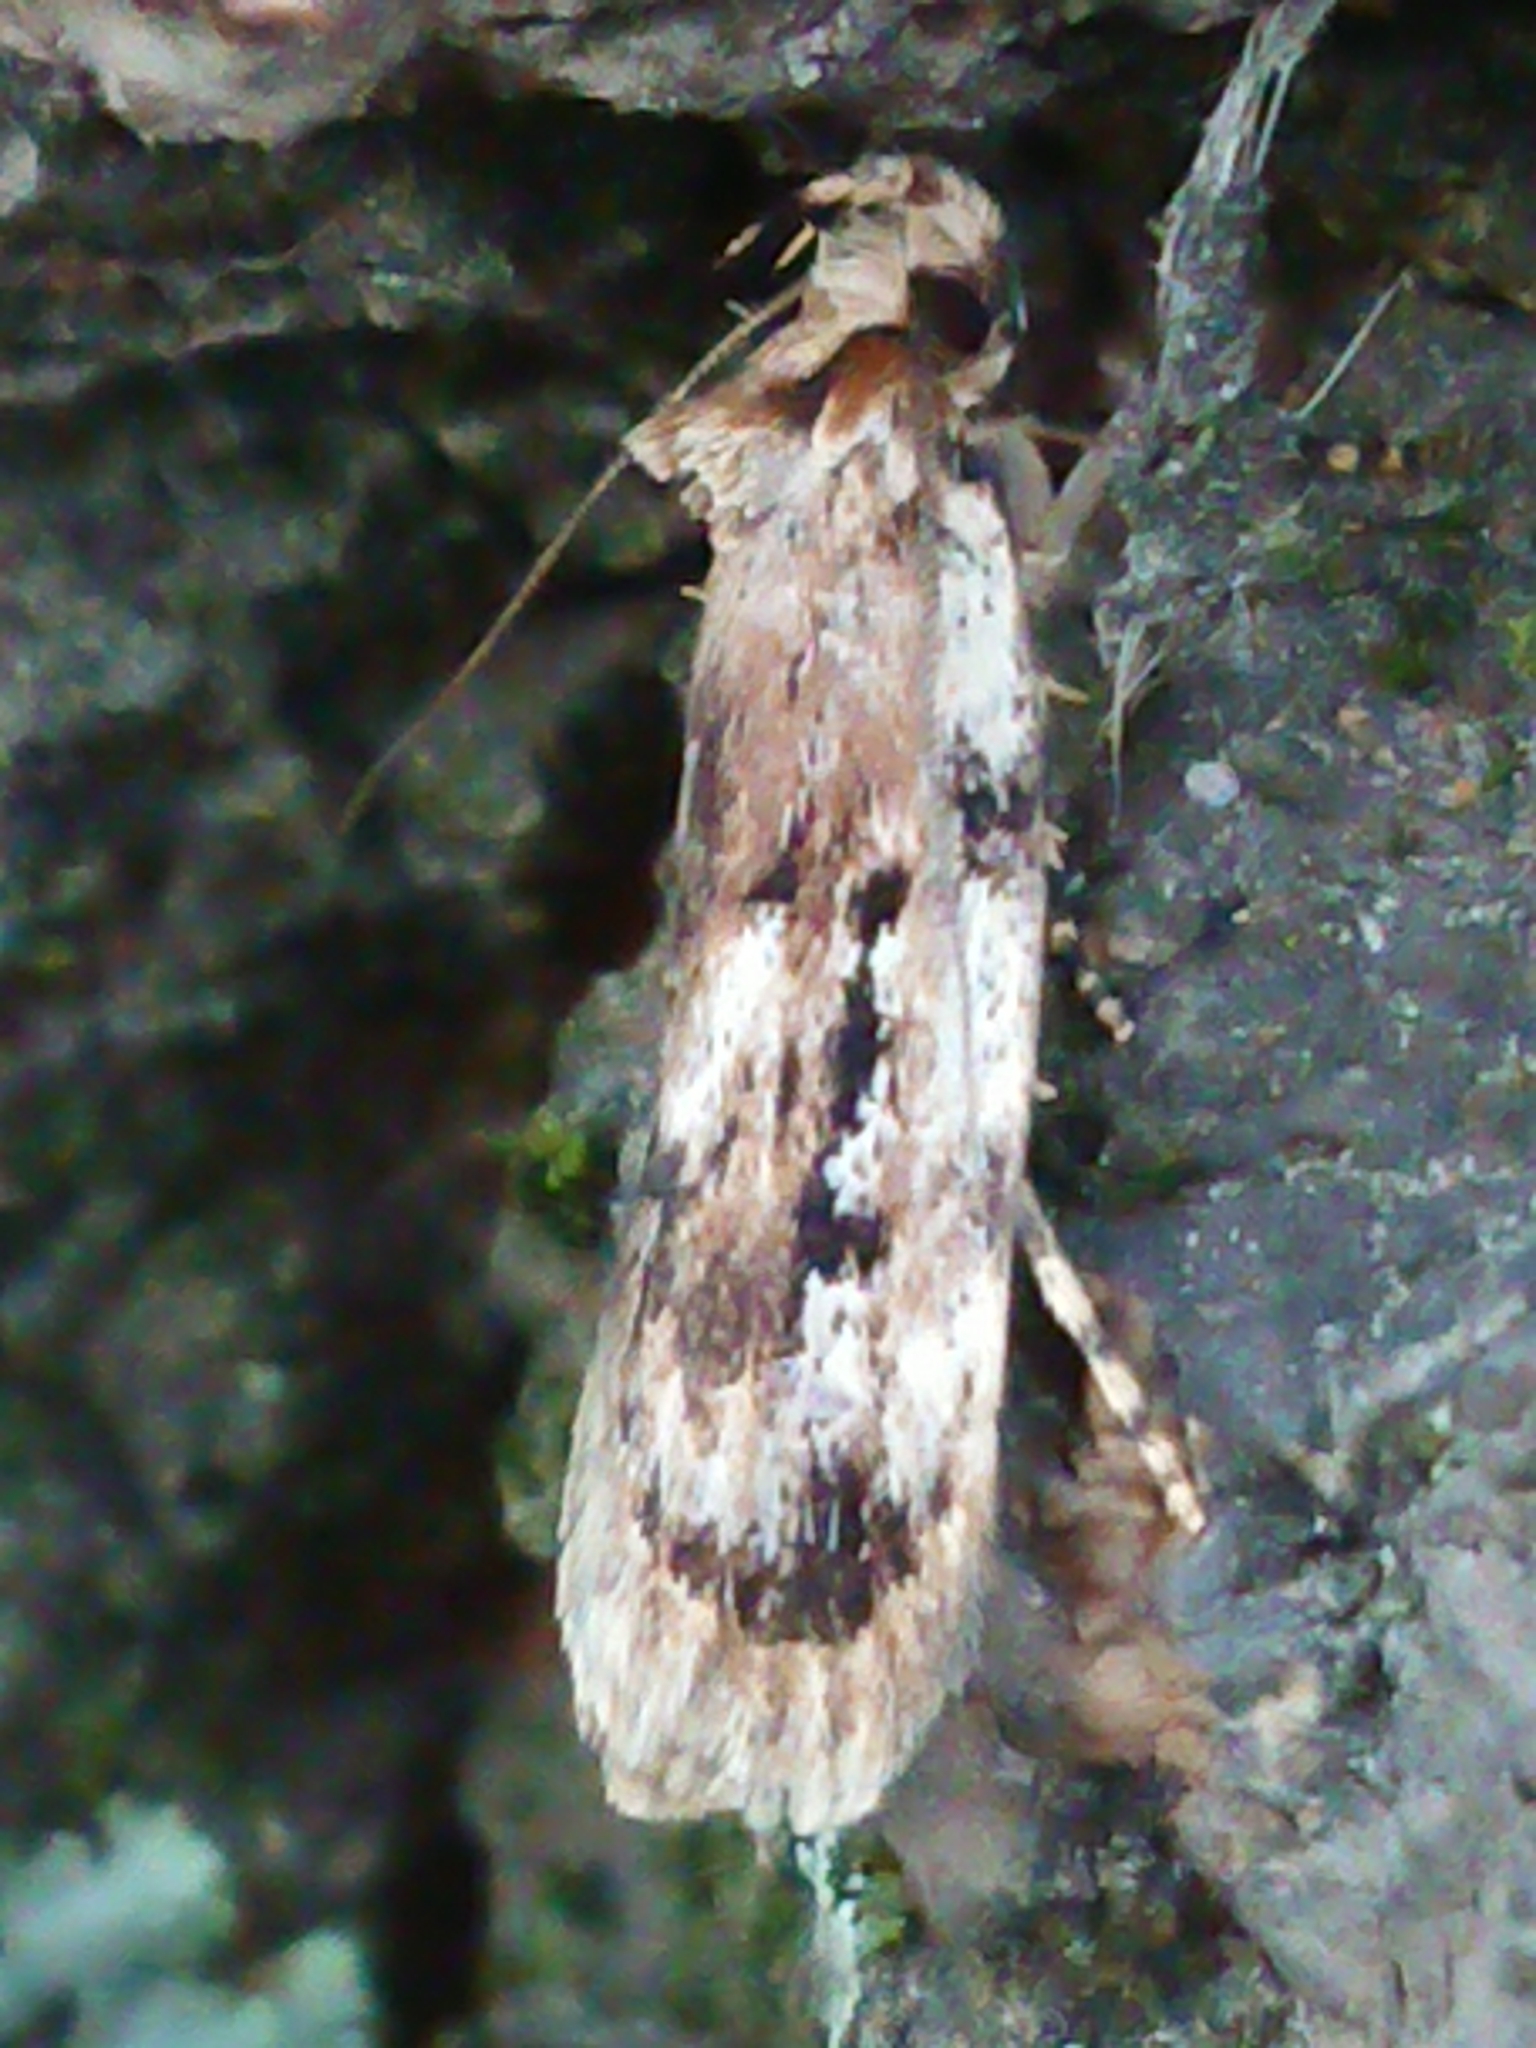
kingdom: Animalia
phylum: Arthropoda
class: Insecta
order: Lepidoptera
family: Oecophoridae
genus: Barea
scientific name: Barea exarcha
